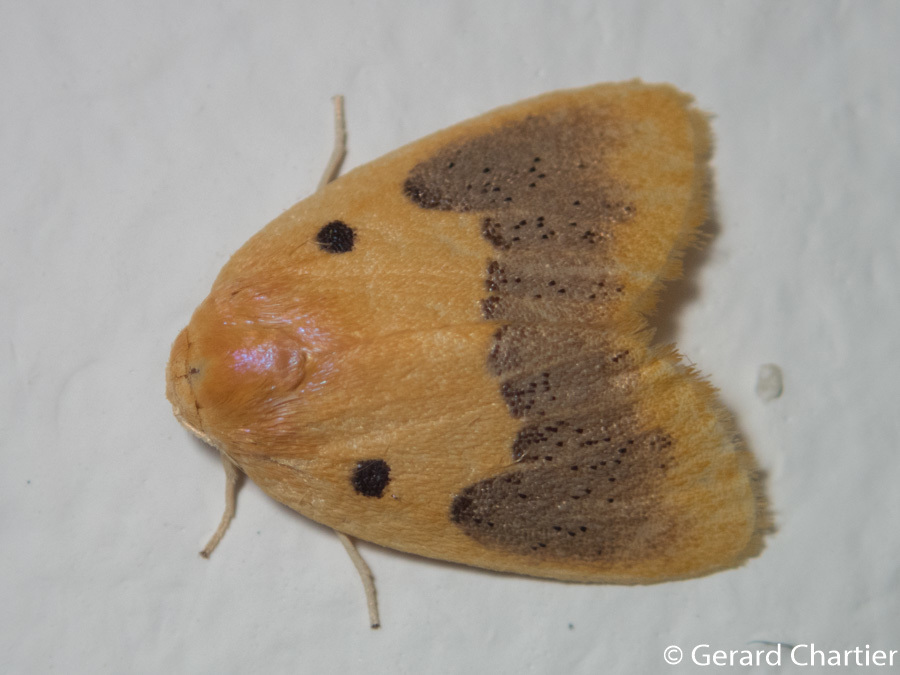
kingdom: Animalia
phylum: Arthropoda
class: Insecta
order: Lepidoptera
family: Erebidae
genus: Cyclomilta
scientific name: Cyclomilta cambodiaca
